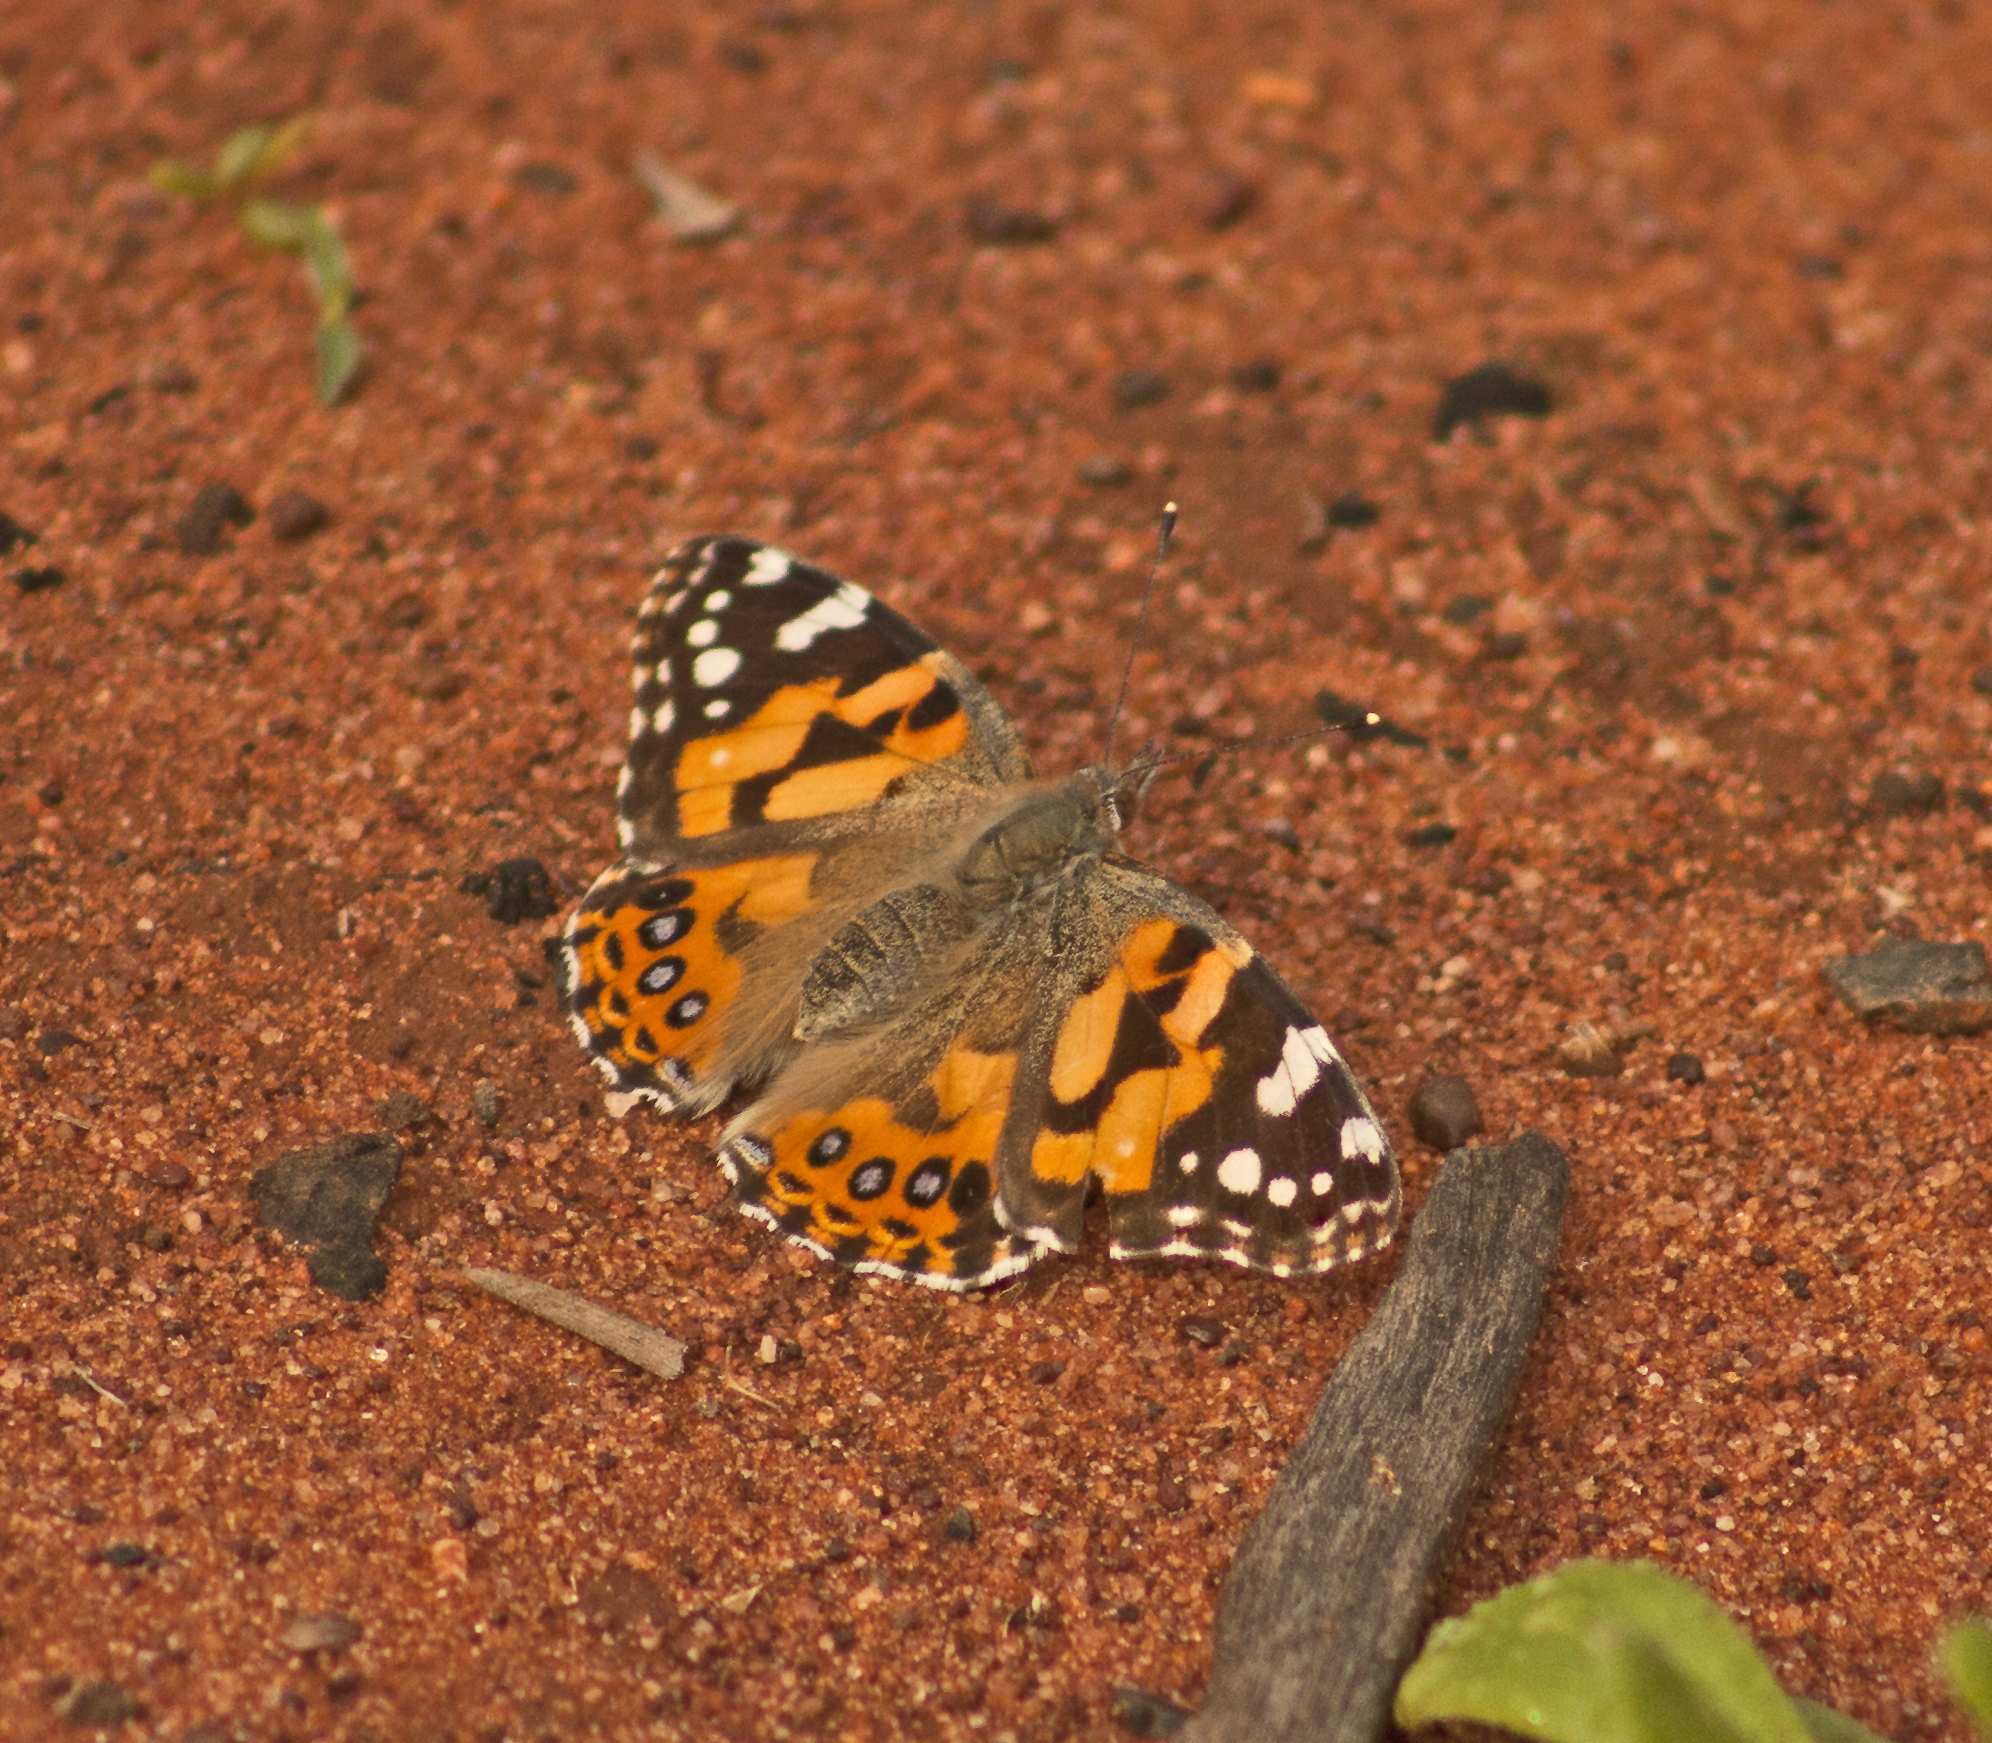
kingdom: Animalia
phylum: Arthropoda
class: Insecta
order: Lepidoptera
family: Nymphalidae
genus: Vanessa
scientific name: Vanessa kershawi
